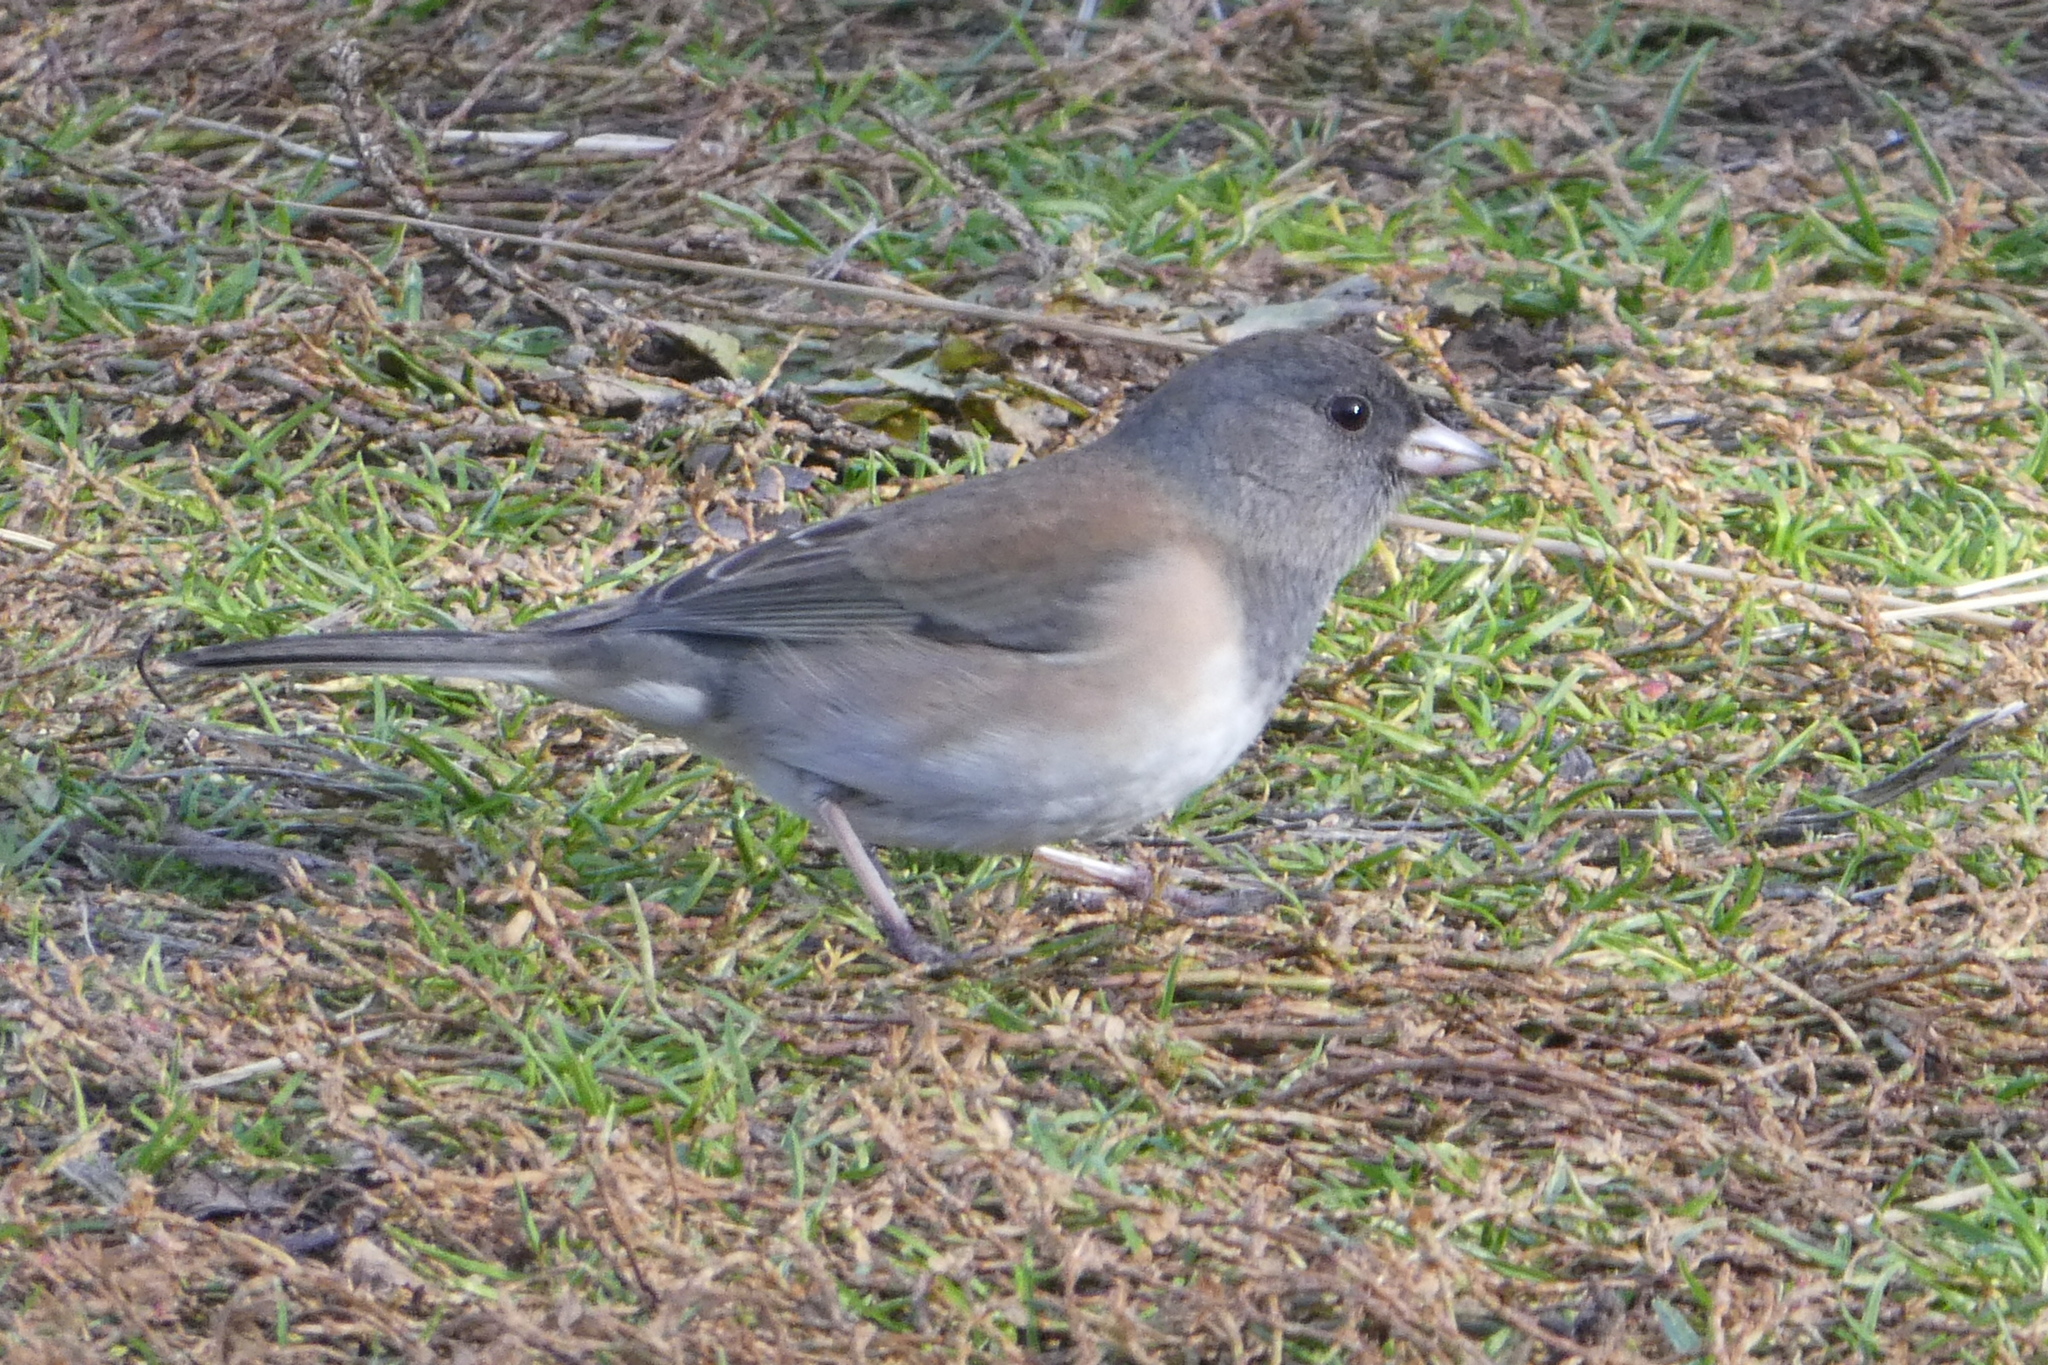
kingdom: Animalia
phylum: Chordata
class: Aves
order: Passeriformes
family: Passerellidae
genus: Junco
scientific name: Junco hyemalis
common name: Dark-eyed junco
